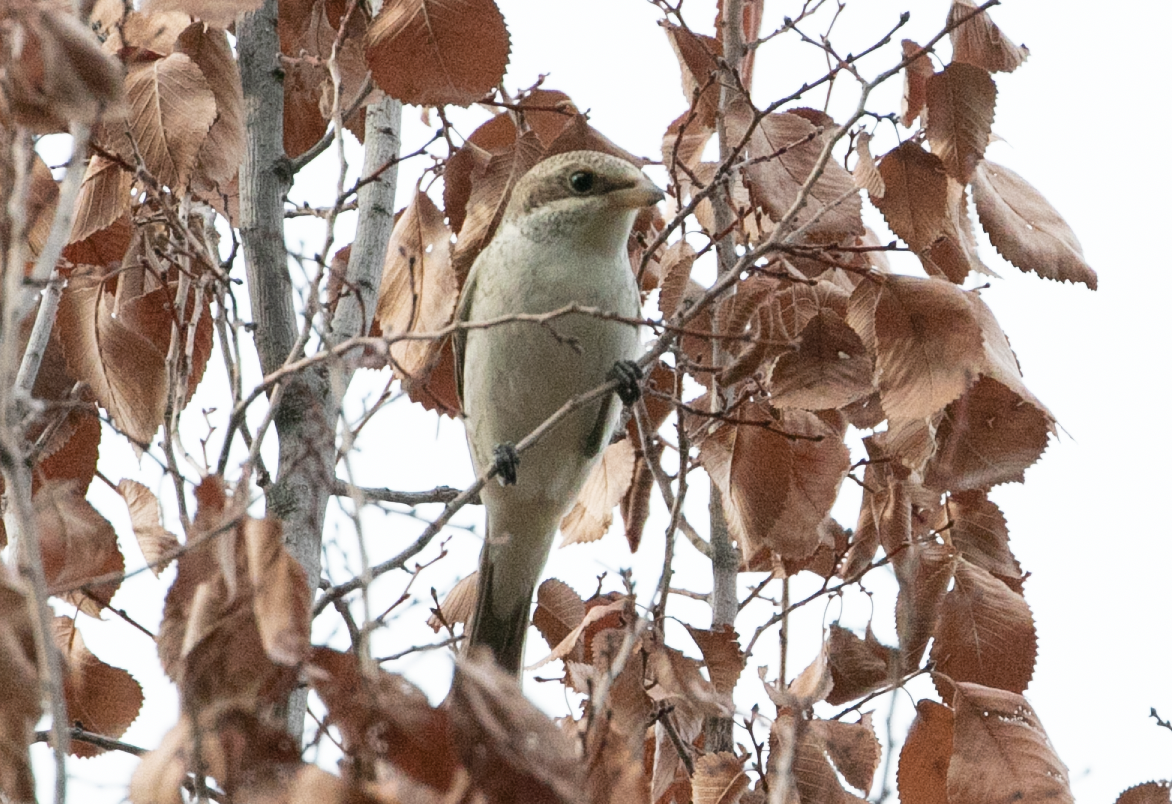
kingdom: Animalia
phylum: Chordata
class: Aves
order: Passeriformes
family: Laniidae
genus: Lanius
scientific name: Lanius collurio
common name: Red-backed shrike
